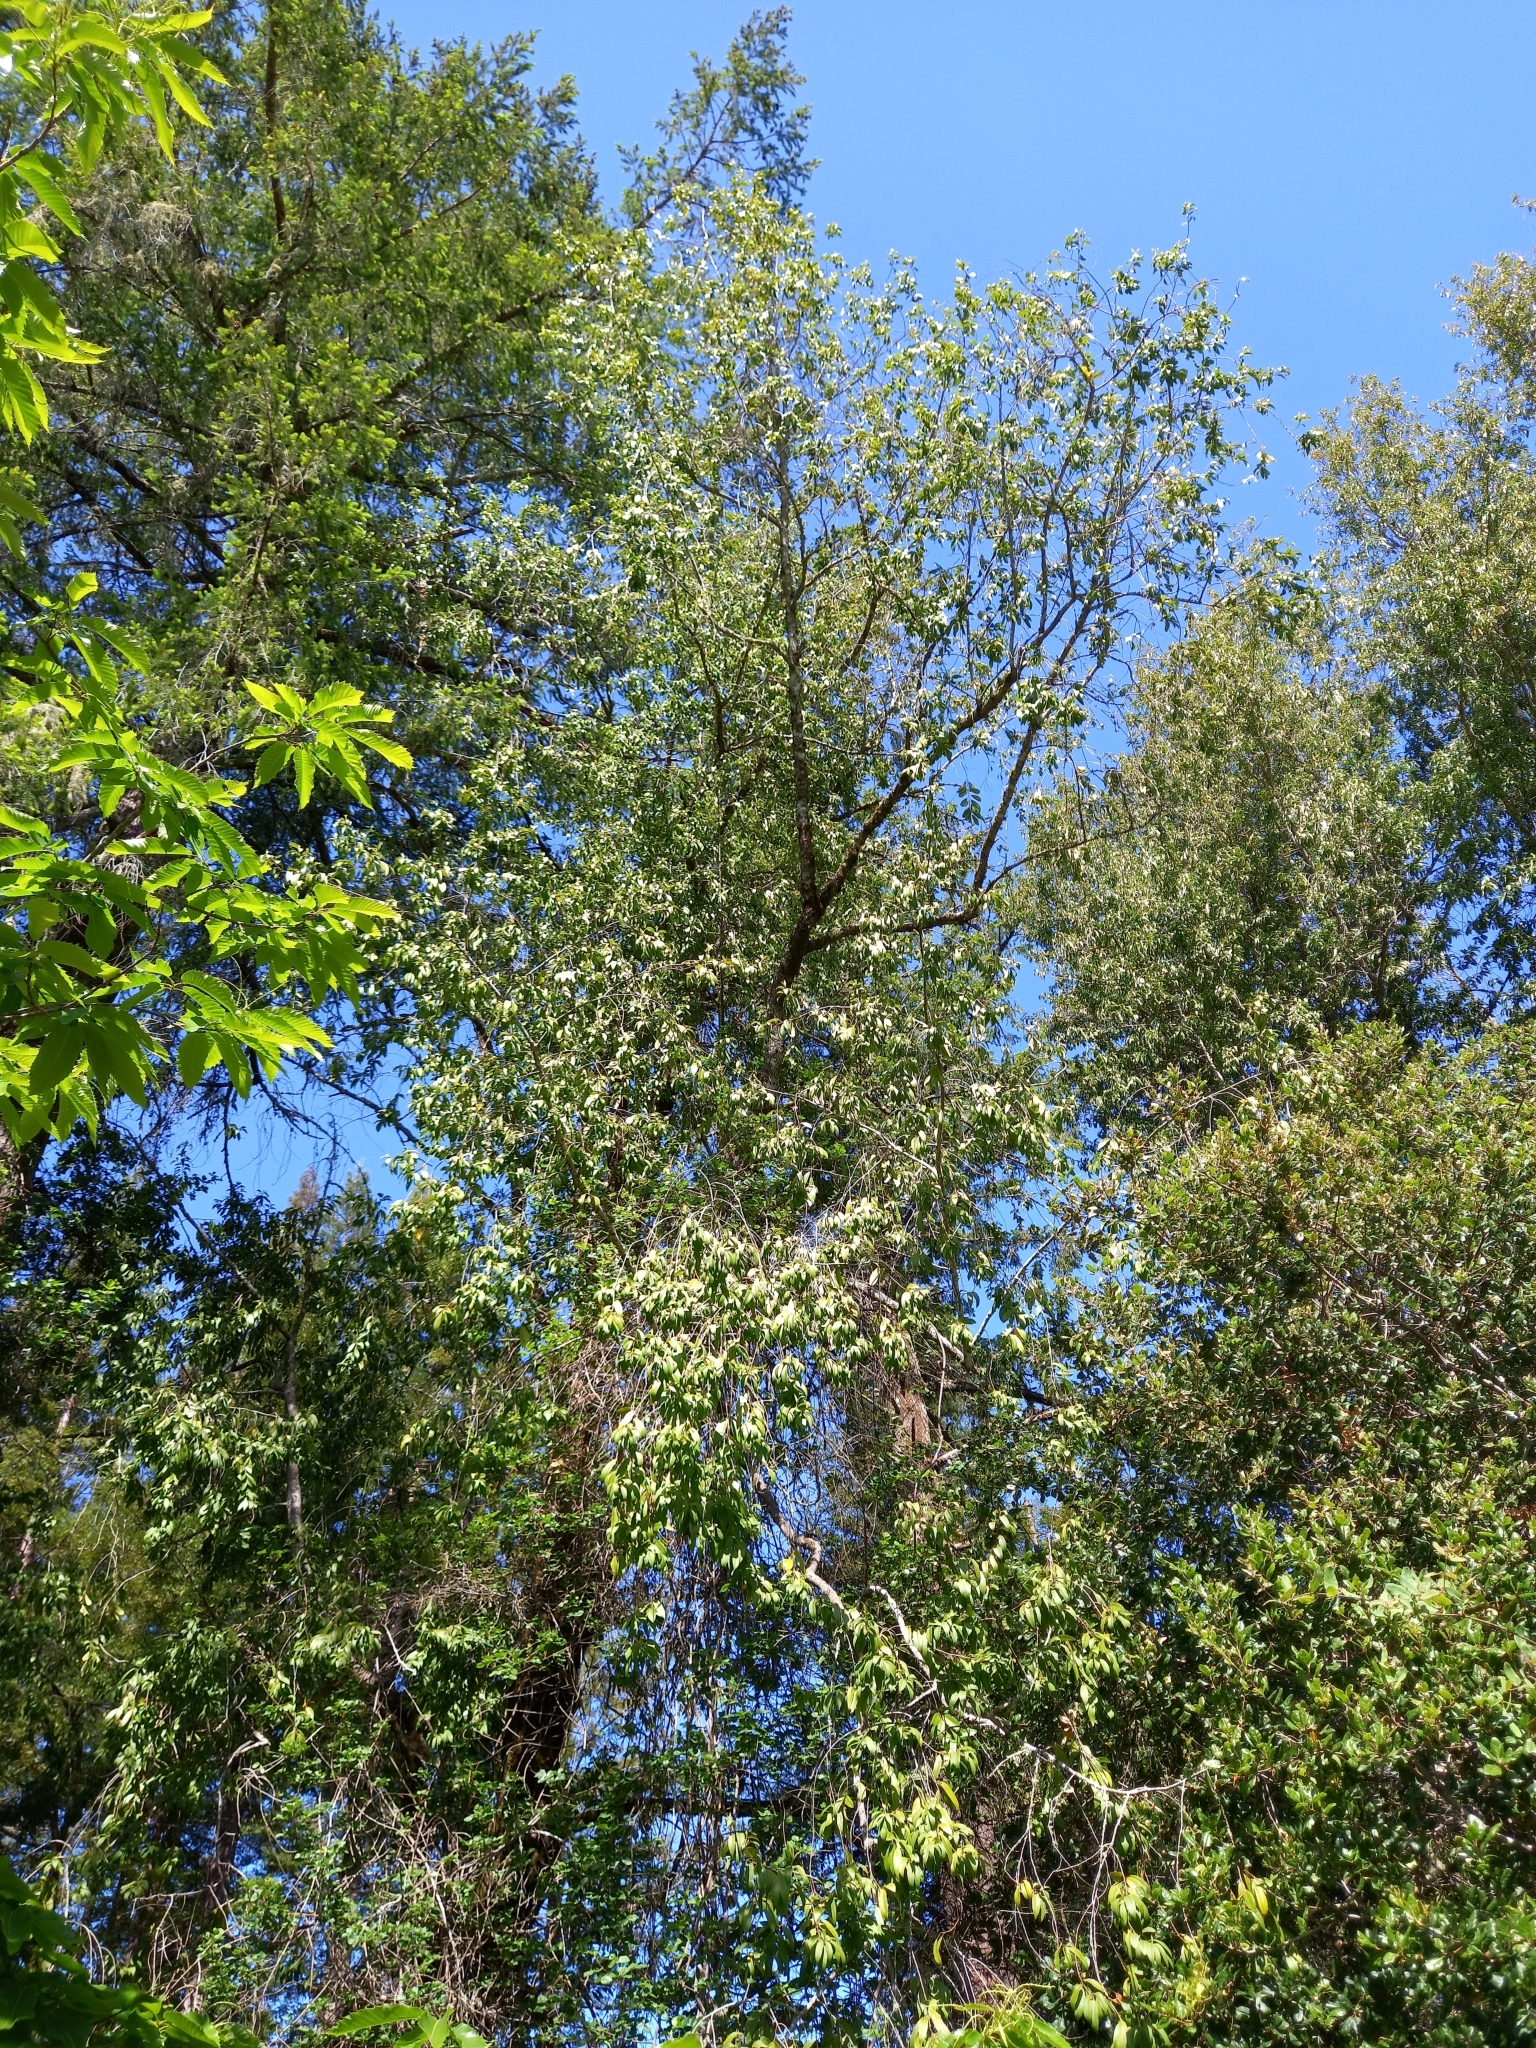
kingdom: Plantae
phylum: Tracheophyta
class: Magnoliopsida
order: Laurales
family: Lauraceae
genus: Umbellularia
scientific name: Umbellularia californica
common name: California bay
